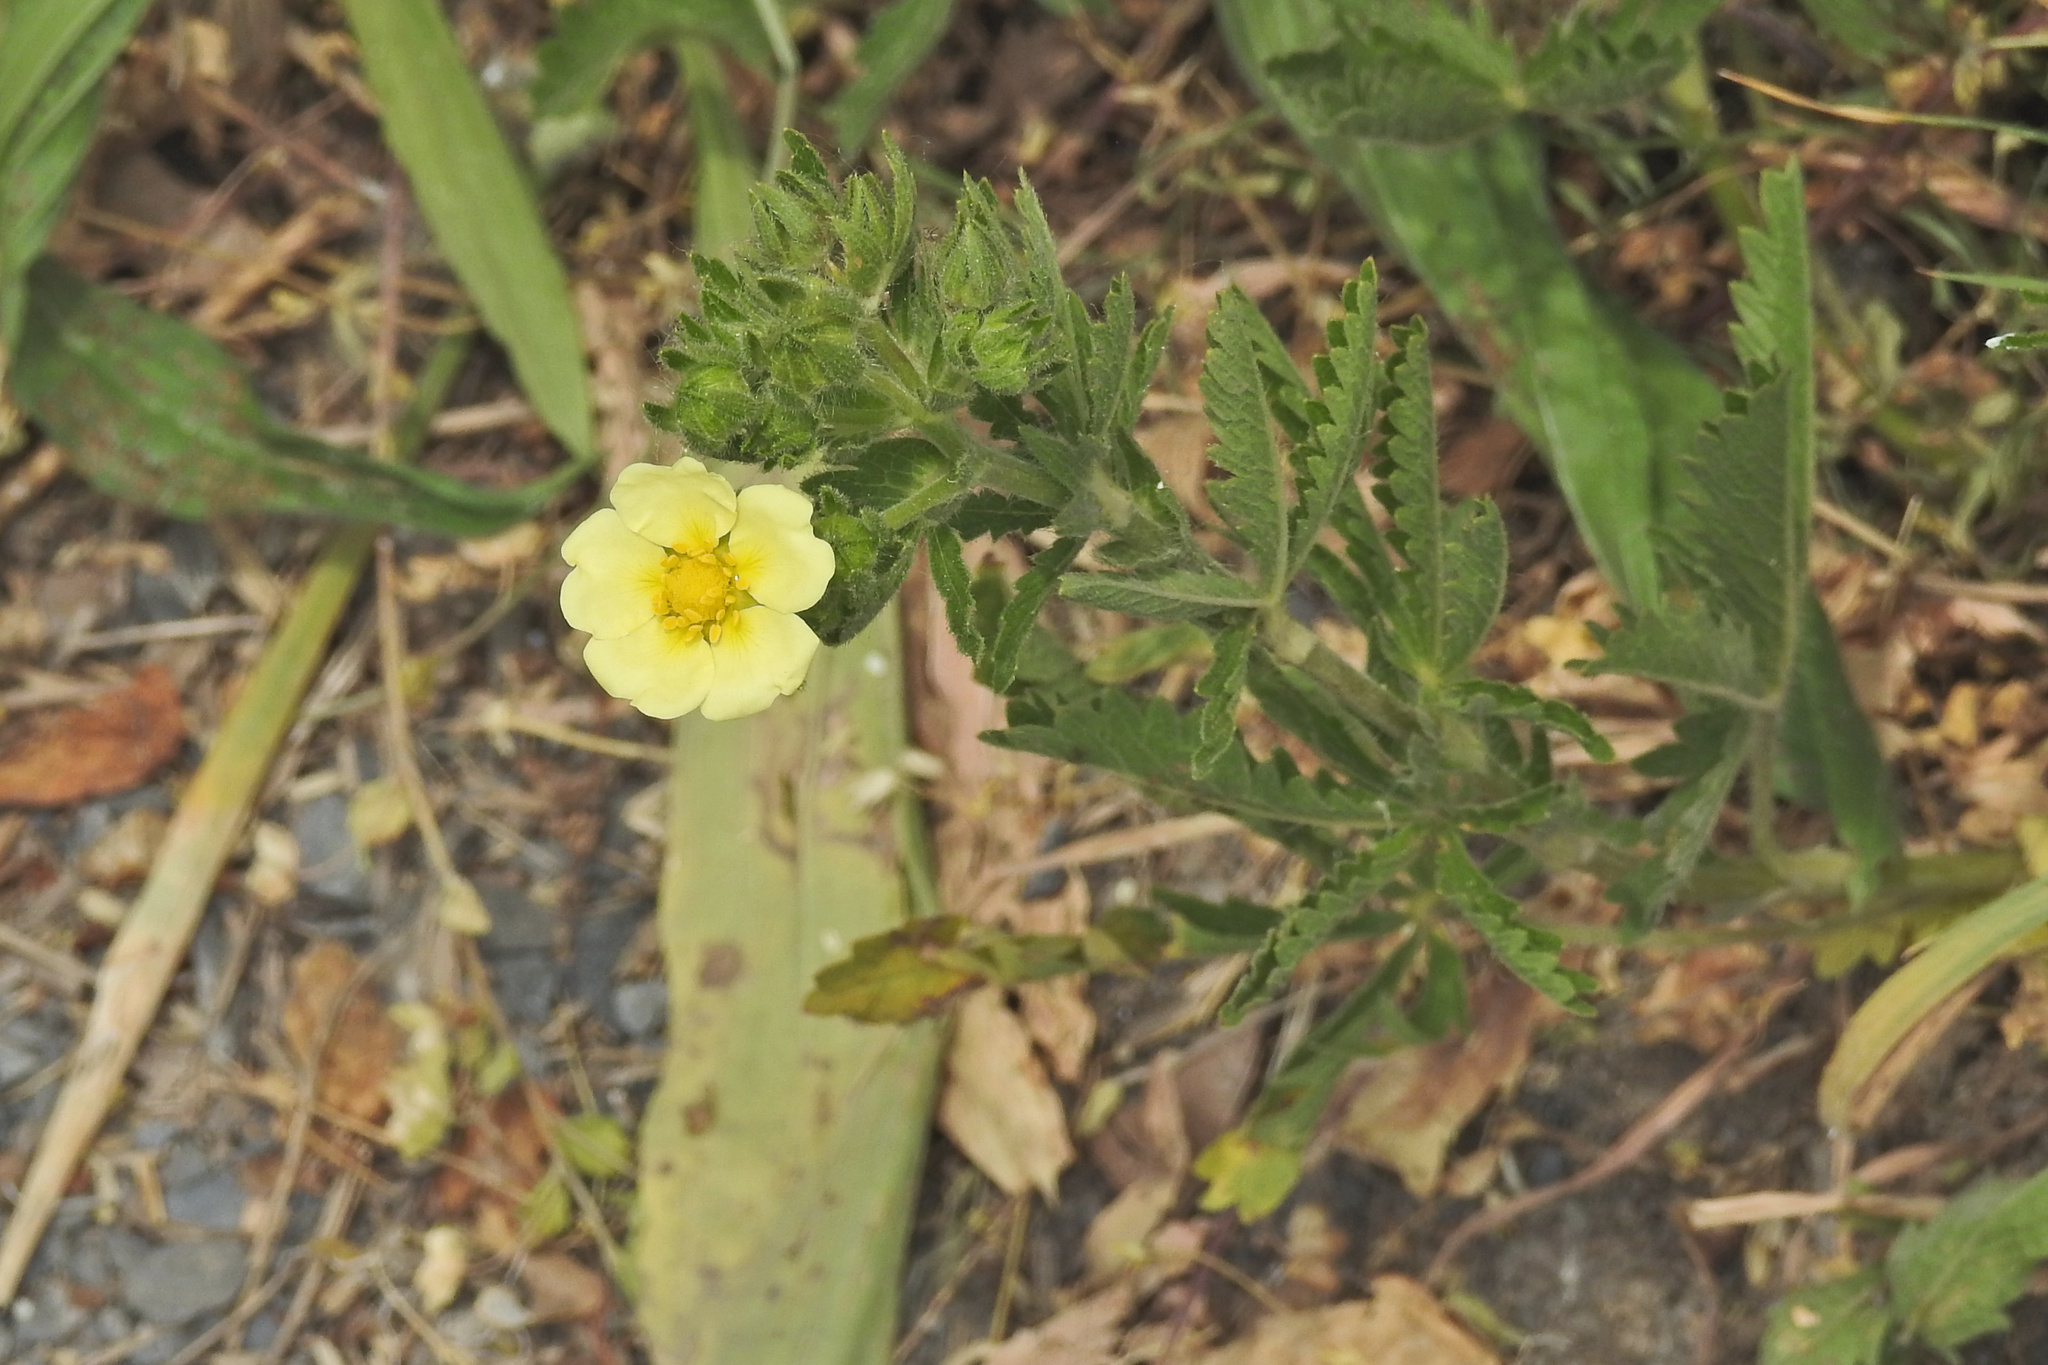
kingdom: Plantae
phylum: Tracheophyta
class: Magnoliopsida
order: Rosales
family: Rosaceae
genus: Potentilla
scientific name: Potentilla recta
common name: Sulphur cinquefoil
